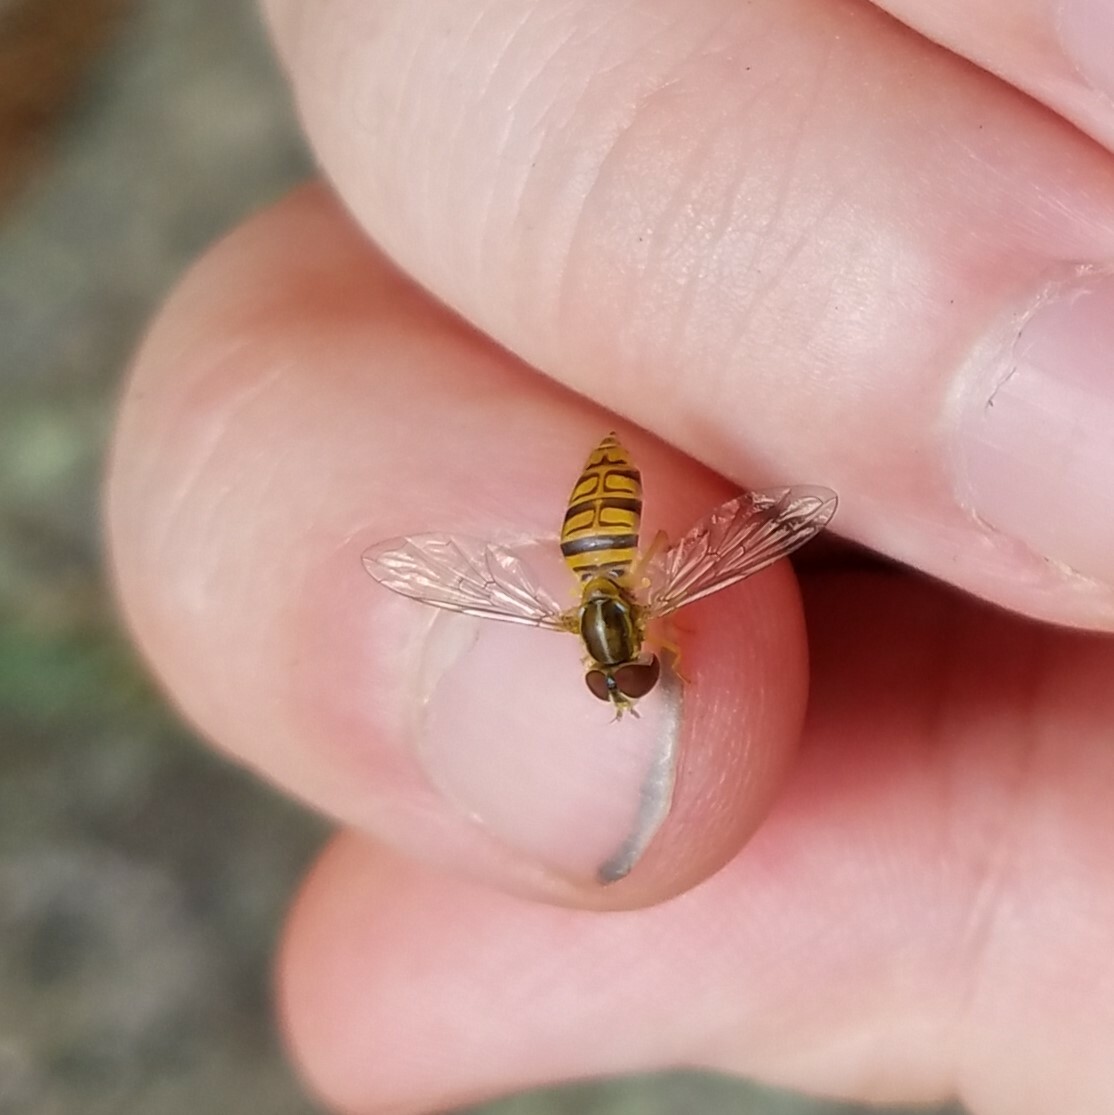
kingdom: Animalia
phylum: Arthropoda
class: Insecta
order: Diptera
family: Syrphidae
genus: Toxomerus
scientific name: Toxomerus politus
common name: Maize calligrapher
